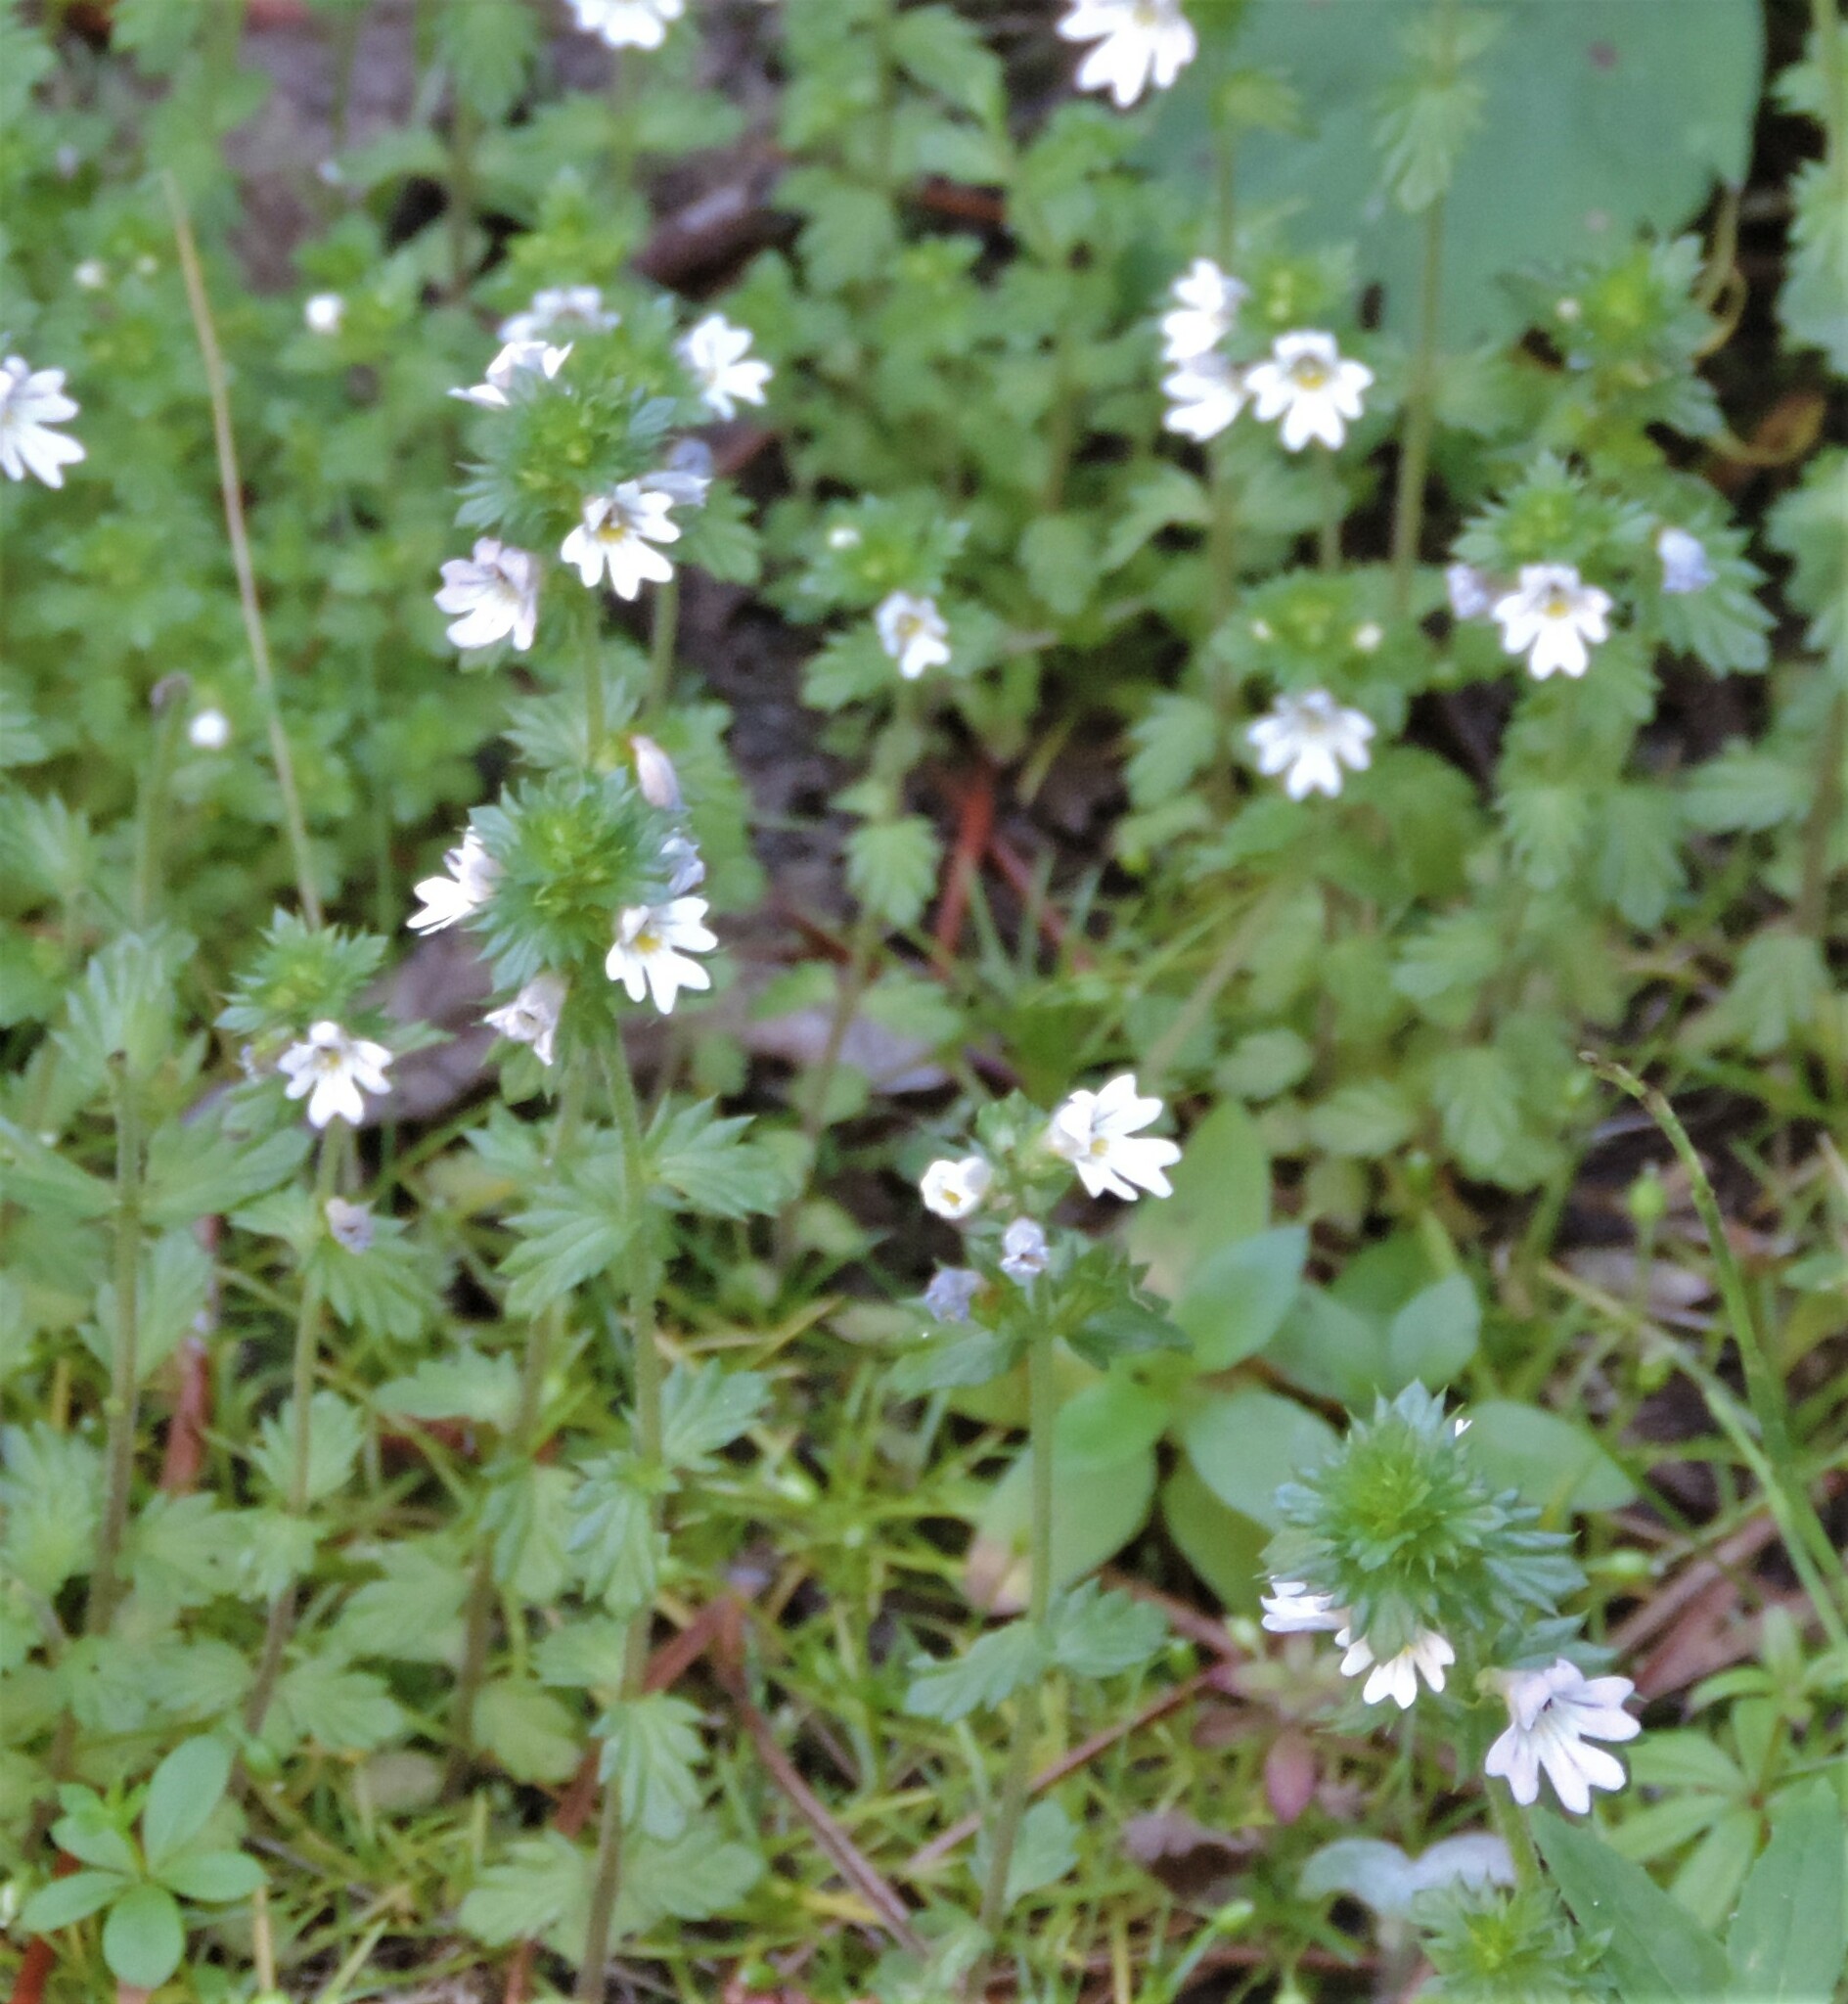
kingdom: Plantae
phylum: Tracheophyta
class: Magnoliopsida
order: Lamiales
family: Orobanchaceae
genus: Euphrasia
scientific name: Euphrasia nemorosa
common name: Common eyebright
